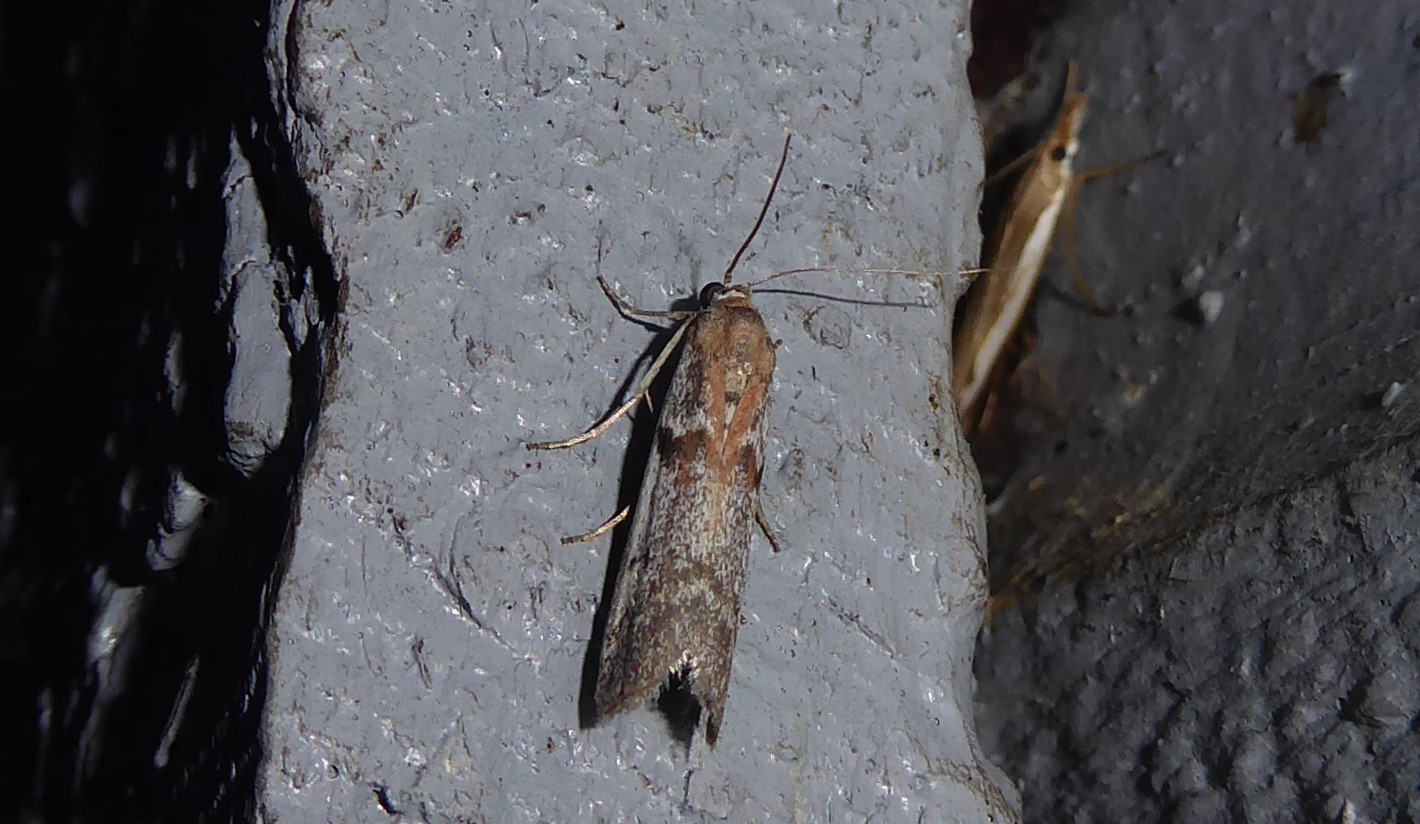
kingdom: Animalia
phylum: Arthropoda
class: Insecta
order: Lepidoptera
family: Pyralidae
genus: Patagoniodes
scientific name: Patagoniodes farinaria
